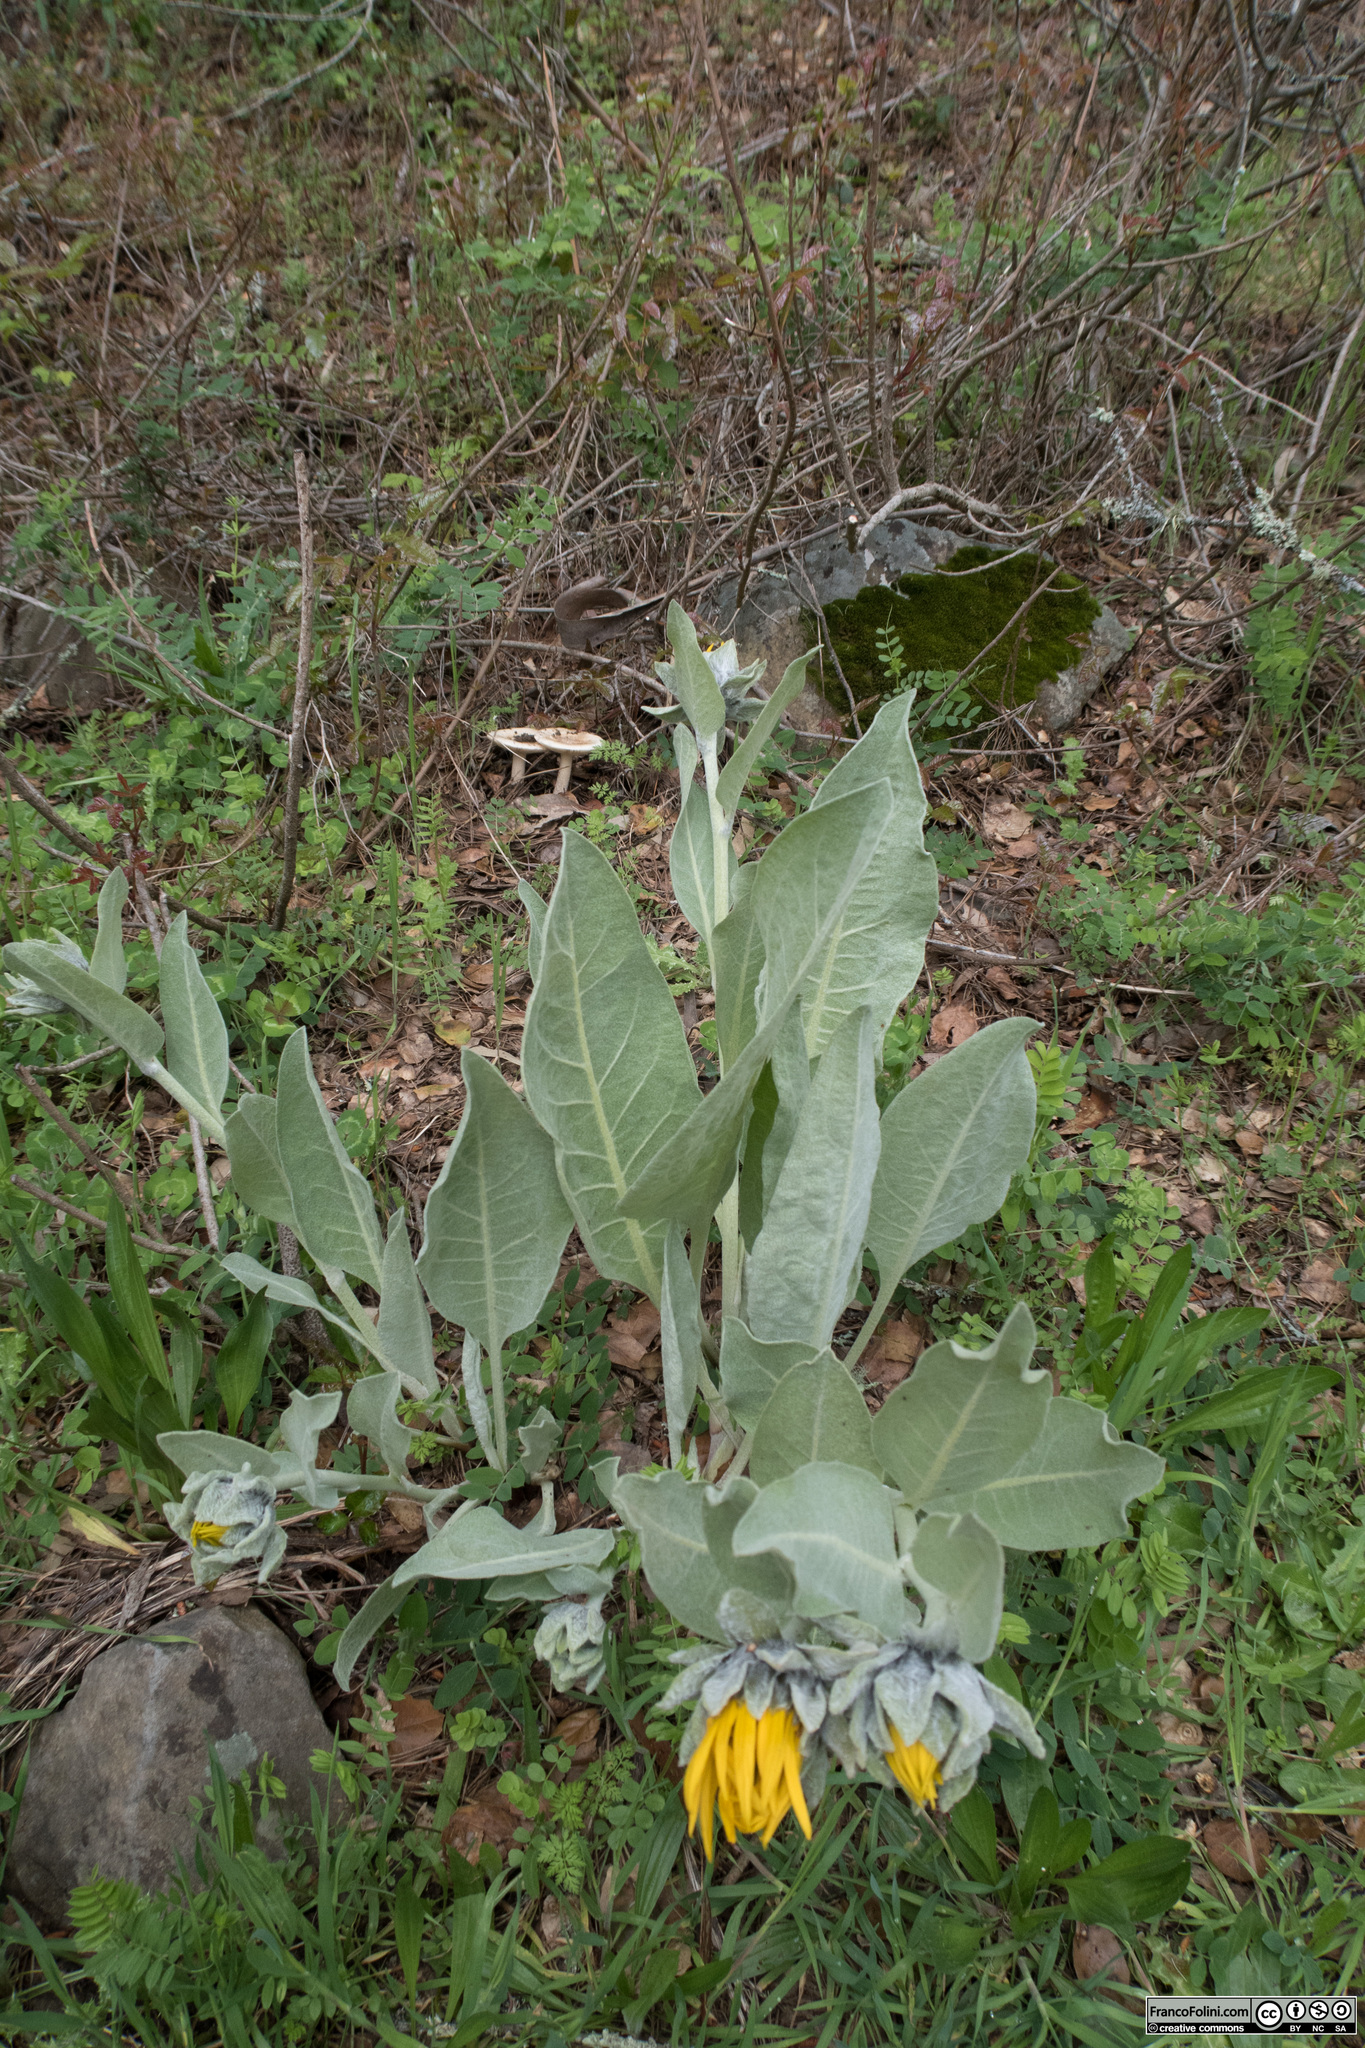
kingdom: Plantae
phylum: Tracheophyta
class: Magnoliopsida
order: Asterales
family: Asteraceae
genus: Wyethia
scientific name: Wyethia helenioides
